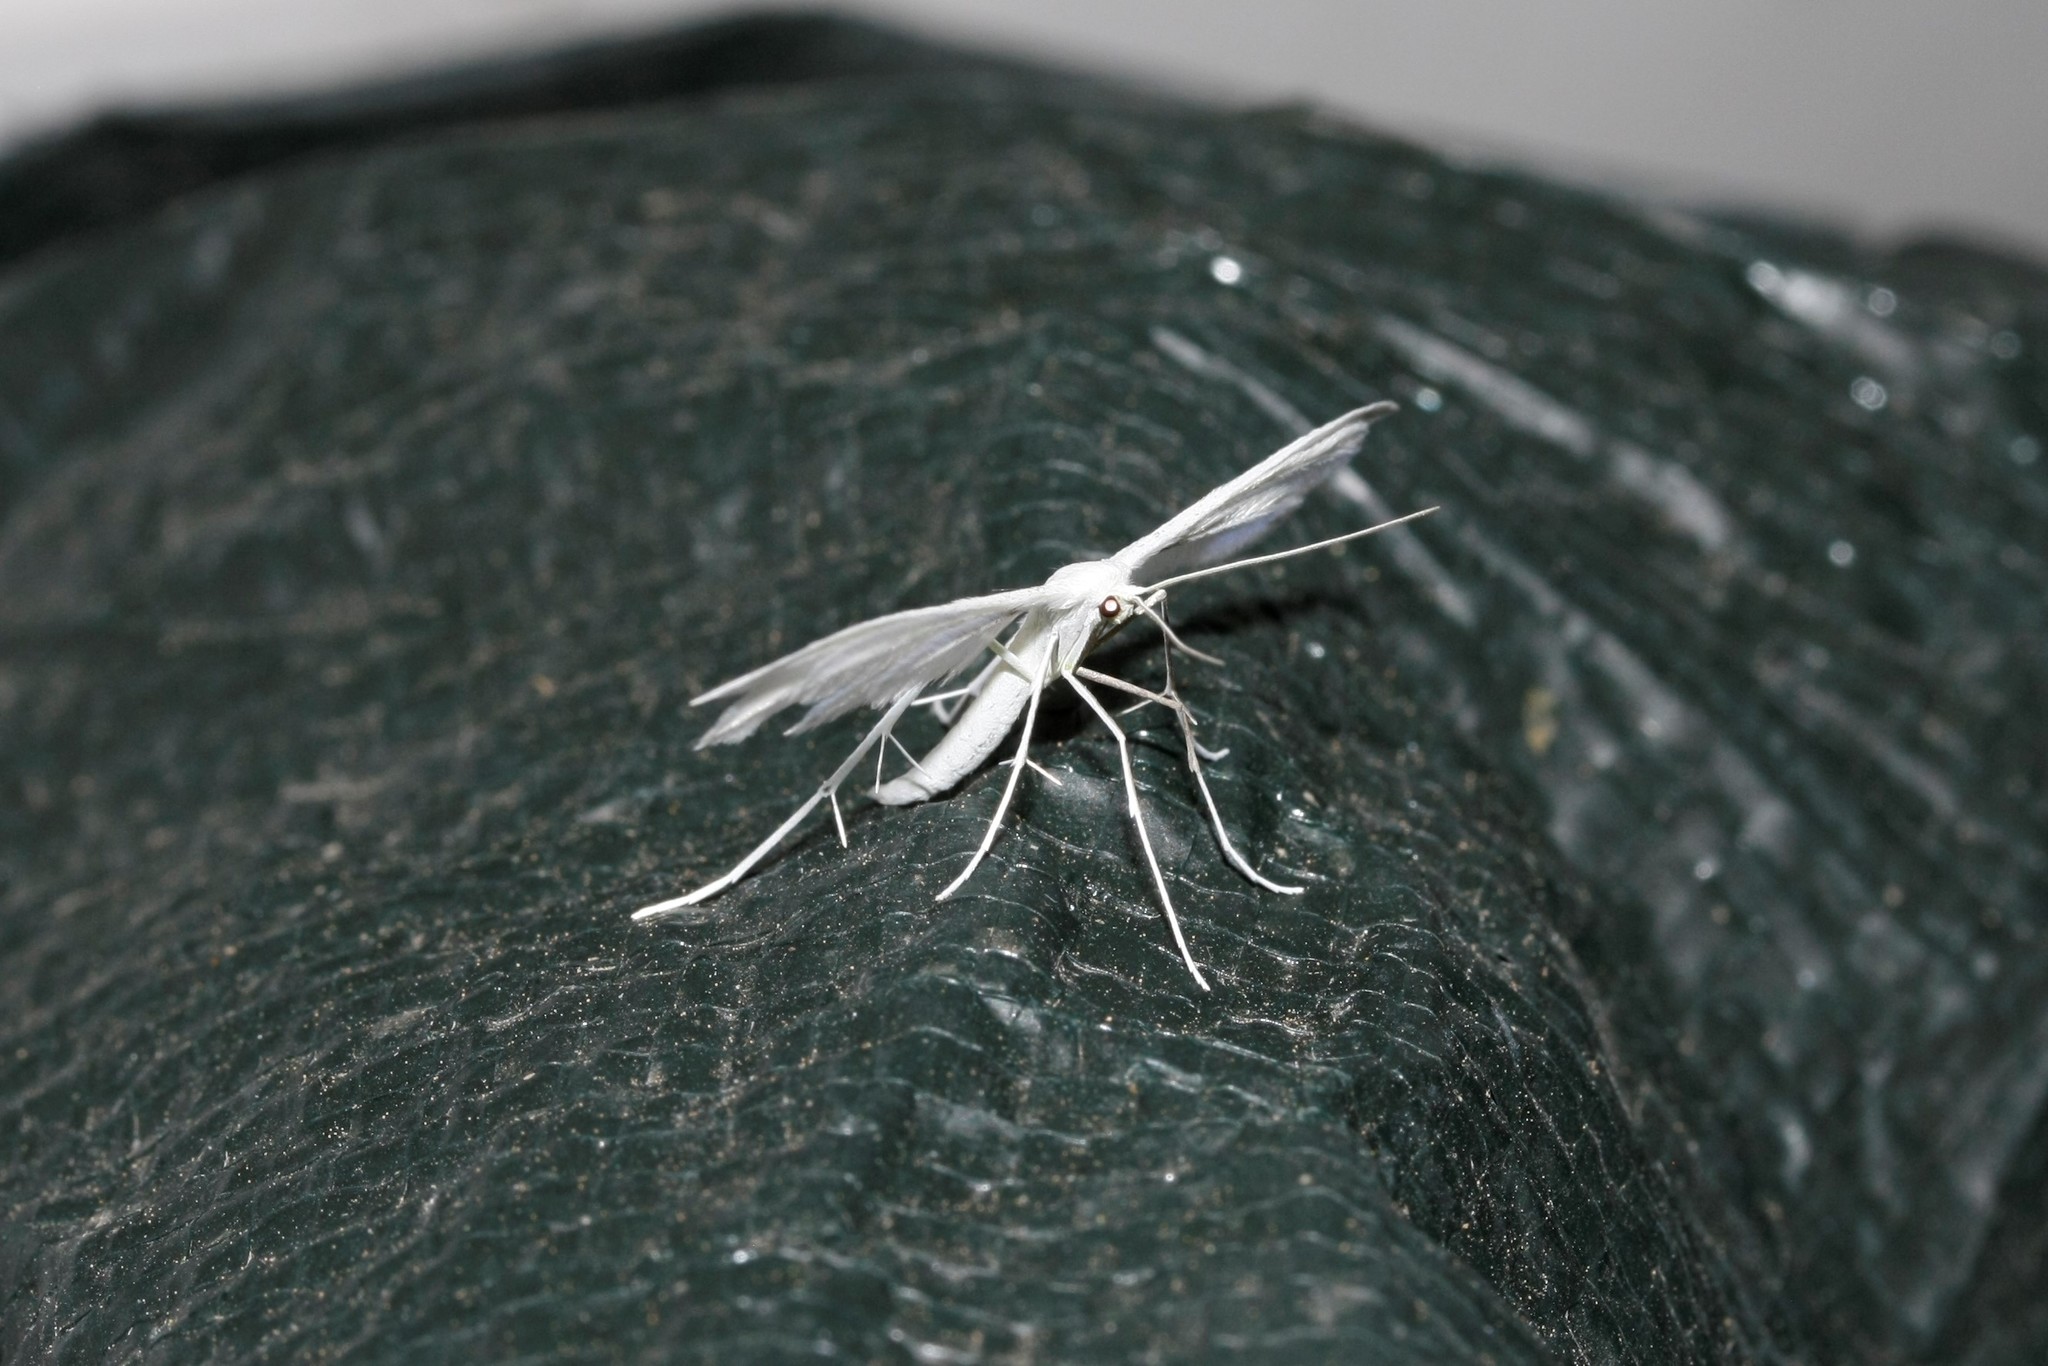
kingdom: Animalia
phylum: Arthropoda
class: Insecta
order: Lepidoptera
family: Pterophoridae
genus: Pterophorus
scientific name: Pterophorus pentadactyla
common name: White plume moth
